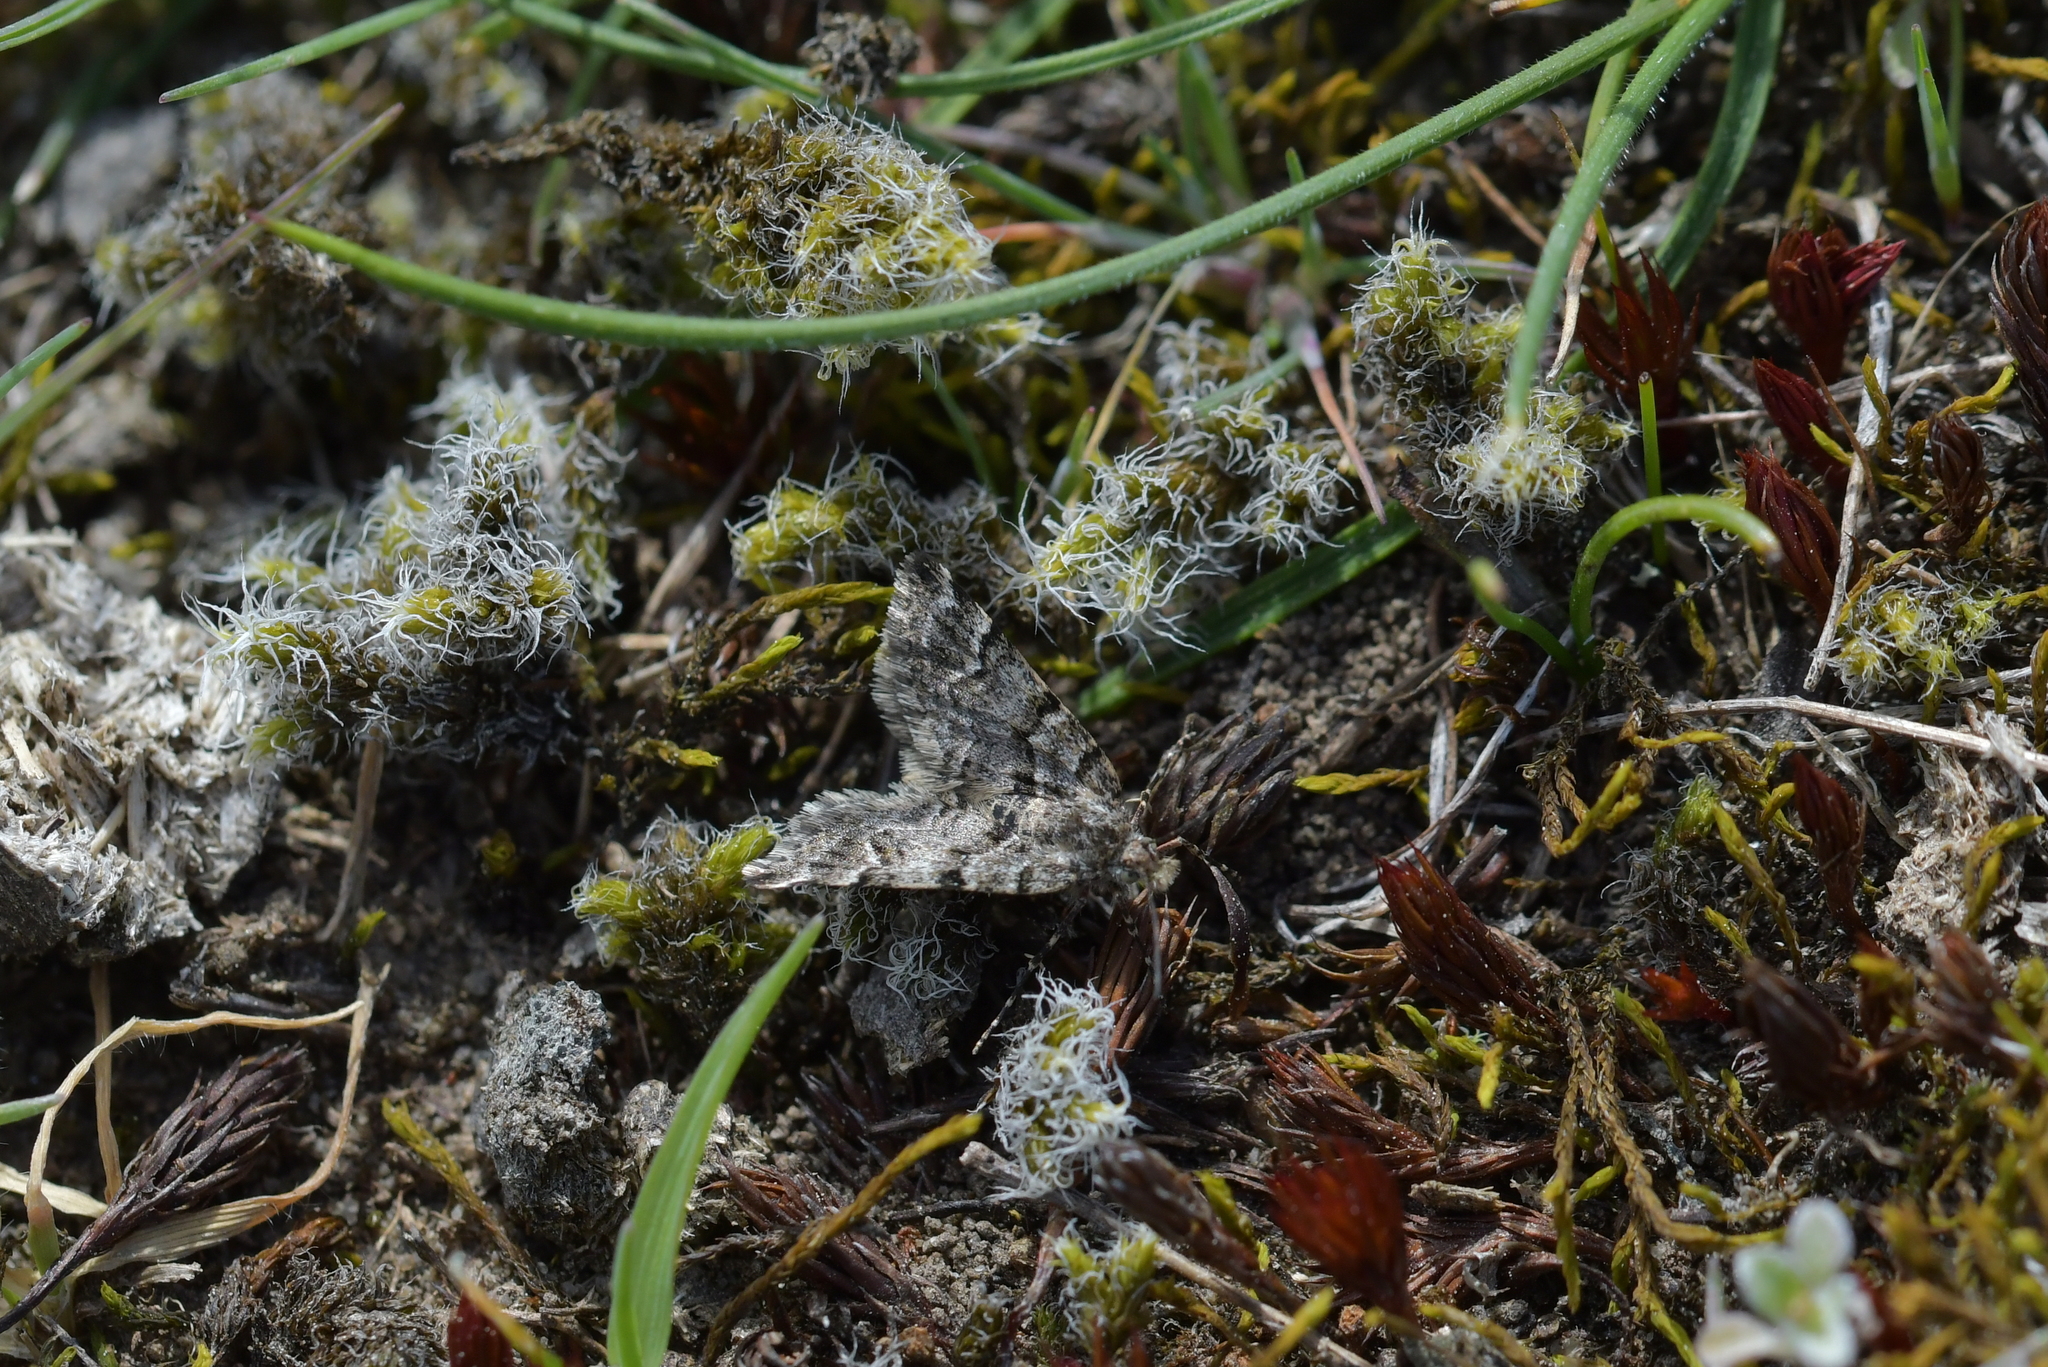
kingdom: Animalia
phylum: Arthropoda
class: Insecta
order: Lepidoptera
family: Geometridae
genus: Arctesthes
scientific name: Arctesthes catapyrrha
